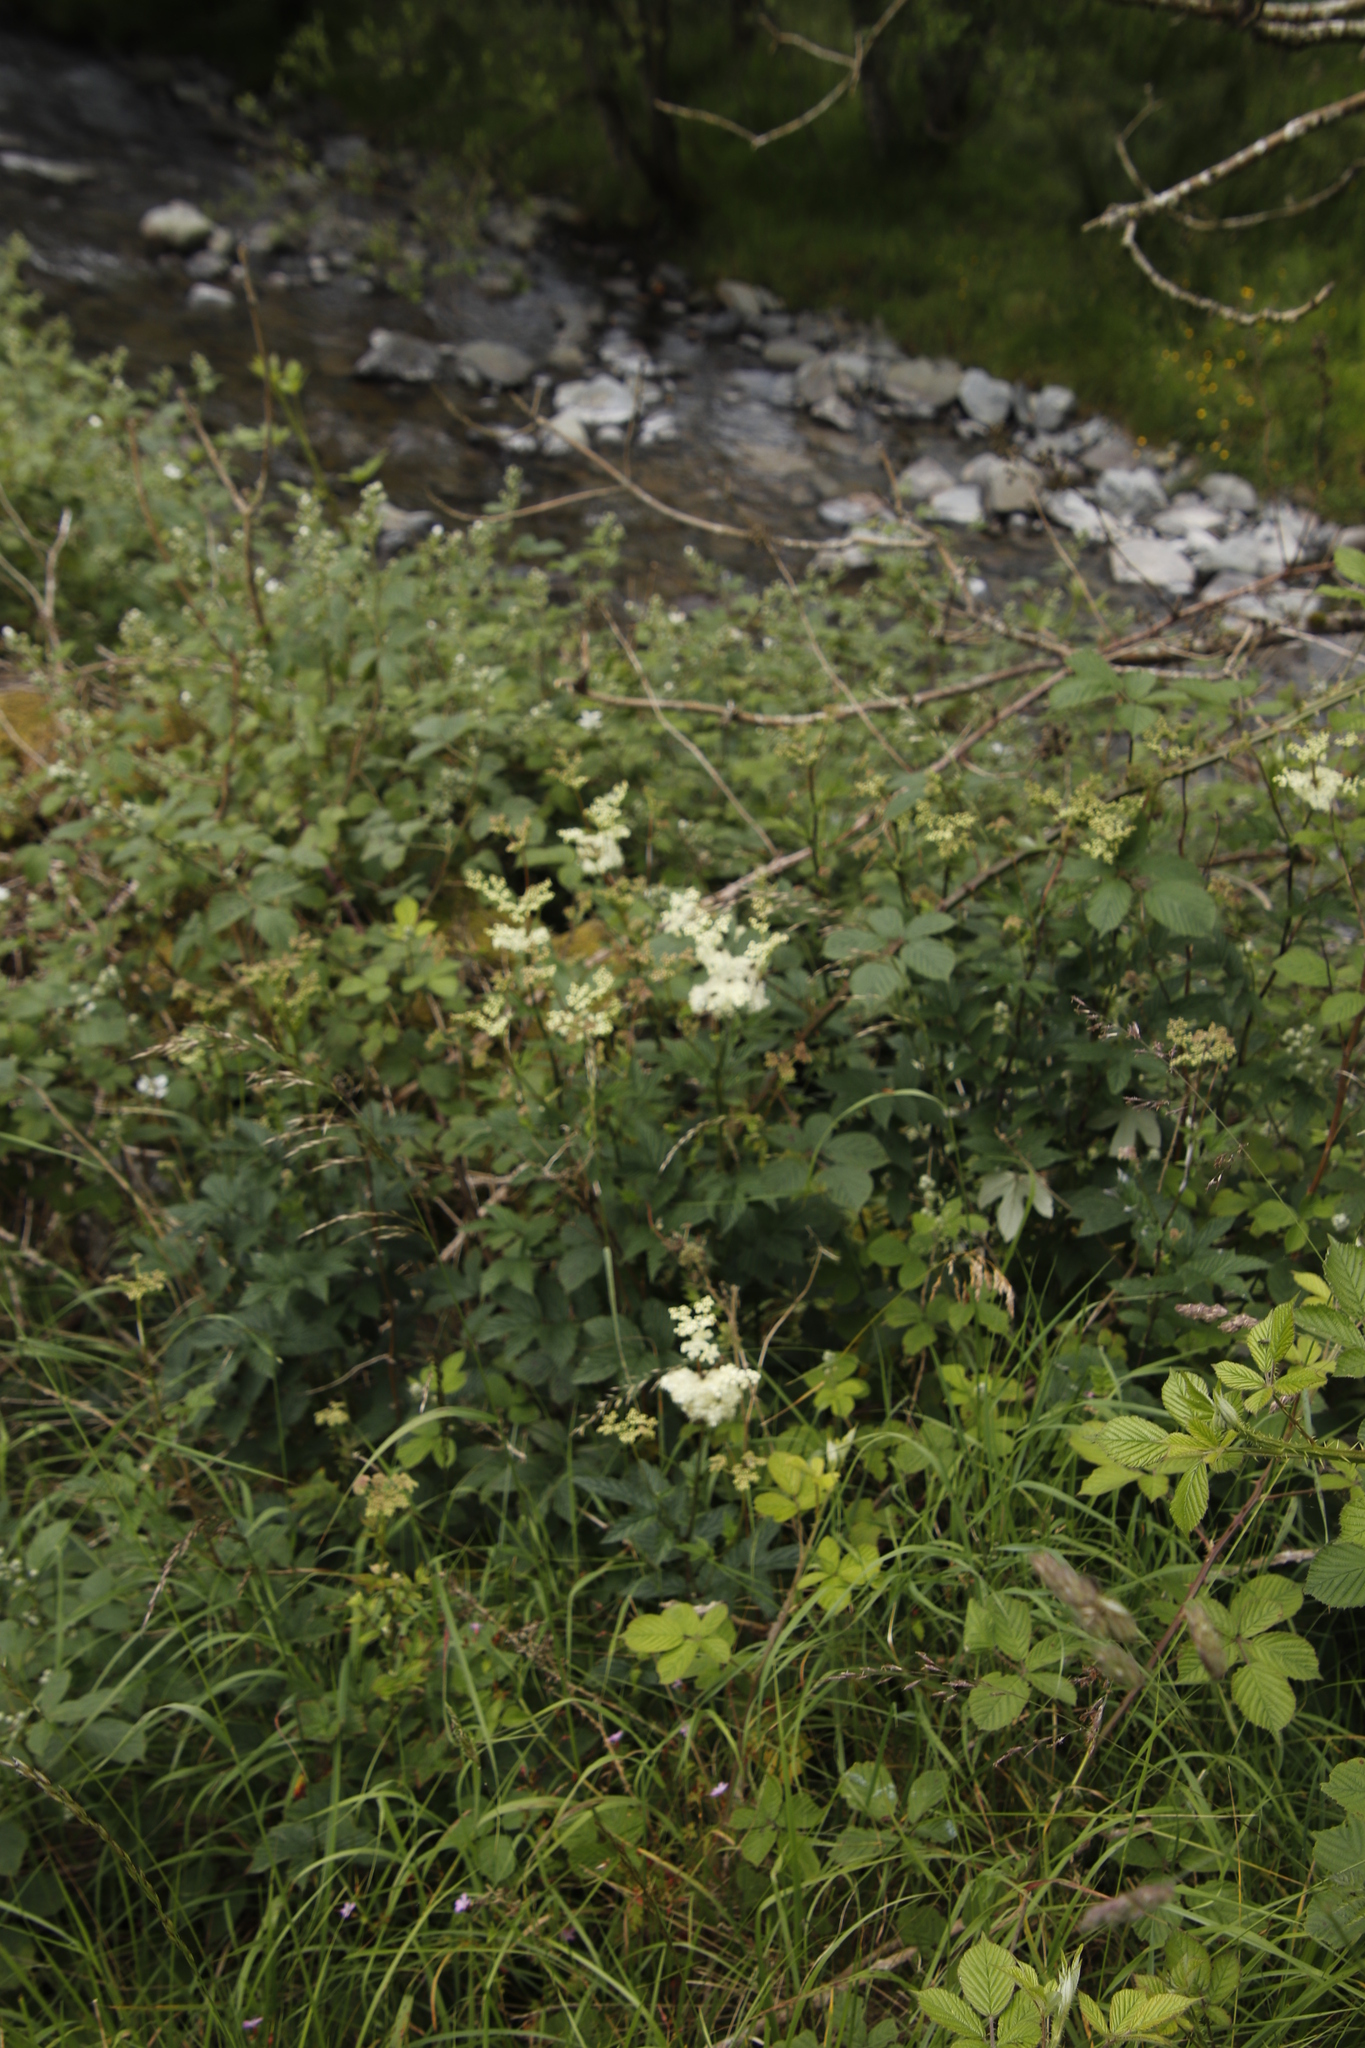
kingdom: Plantae
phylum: Tracheophyta
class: Magnoliopsida
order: Rosales
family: Rosaceae
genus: Filipendula
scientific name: Filipendula ulmaria
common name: Meadowsweet
